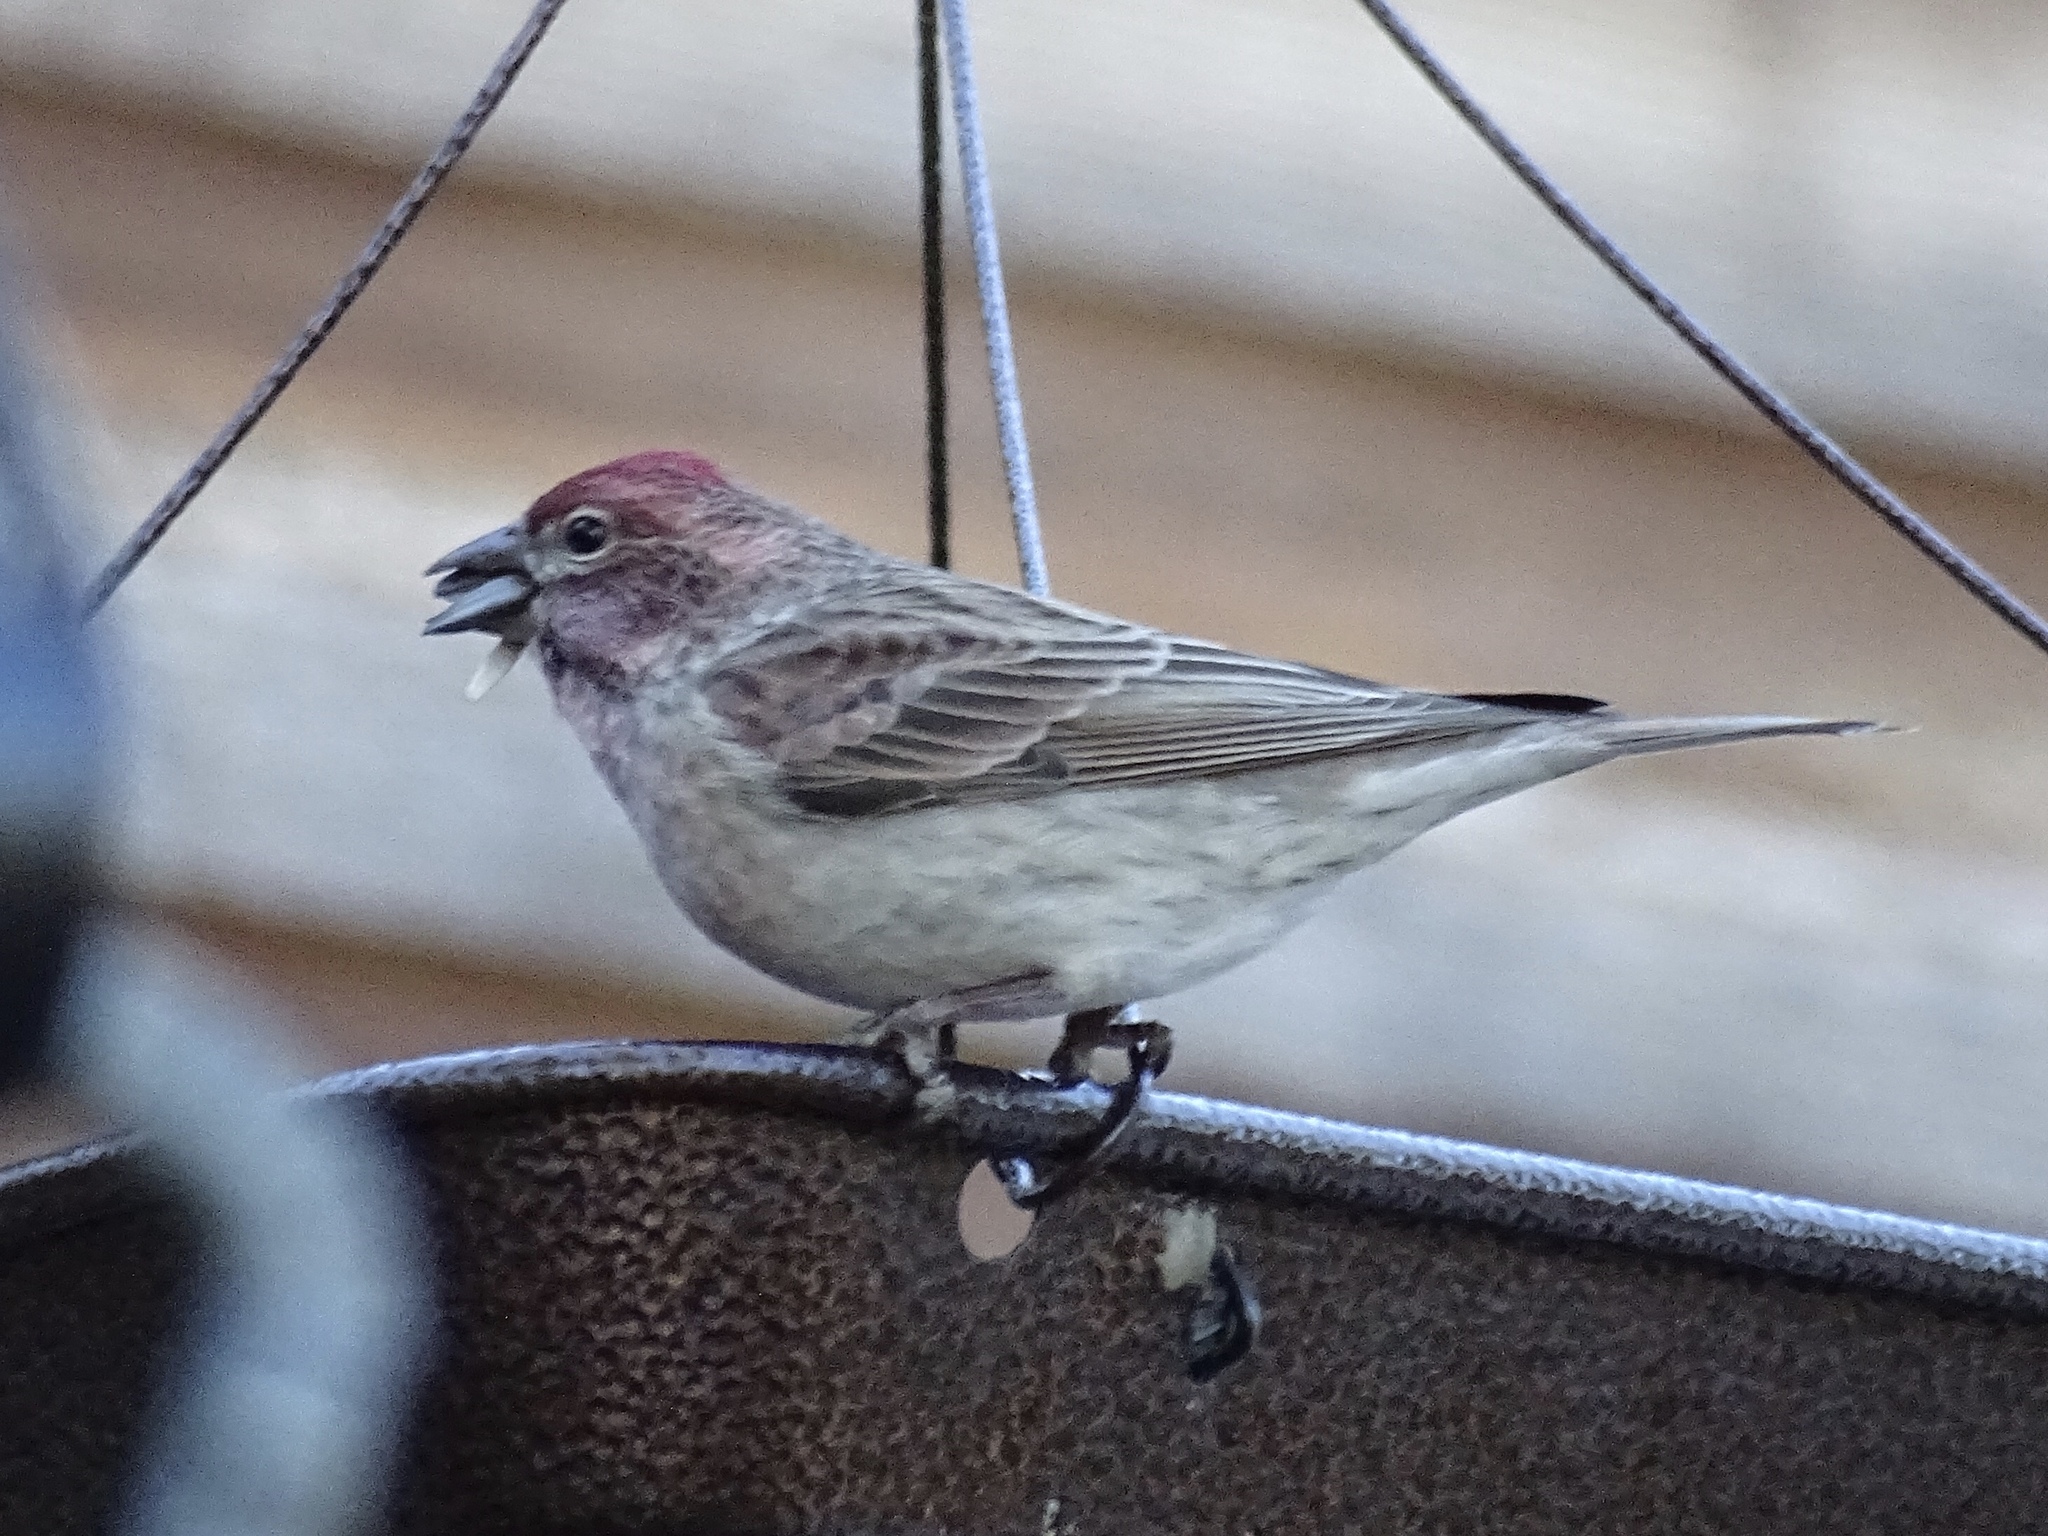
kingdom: Animalia
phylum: Chordata
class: Aves
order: Passeriformes
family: Fringillidae
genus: Haemorhous
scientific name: Haemorhous cassinii
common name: Cassin's finch
